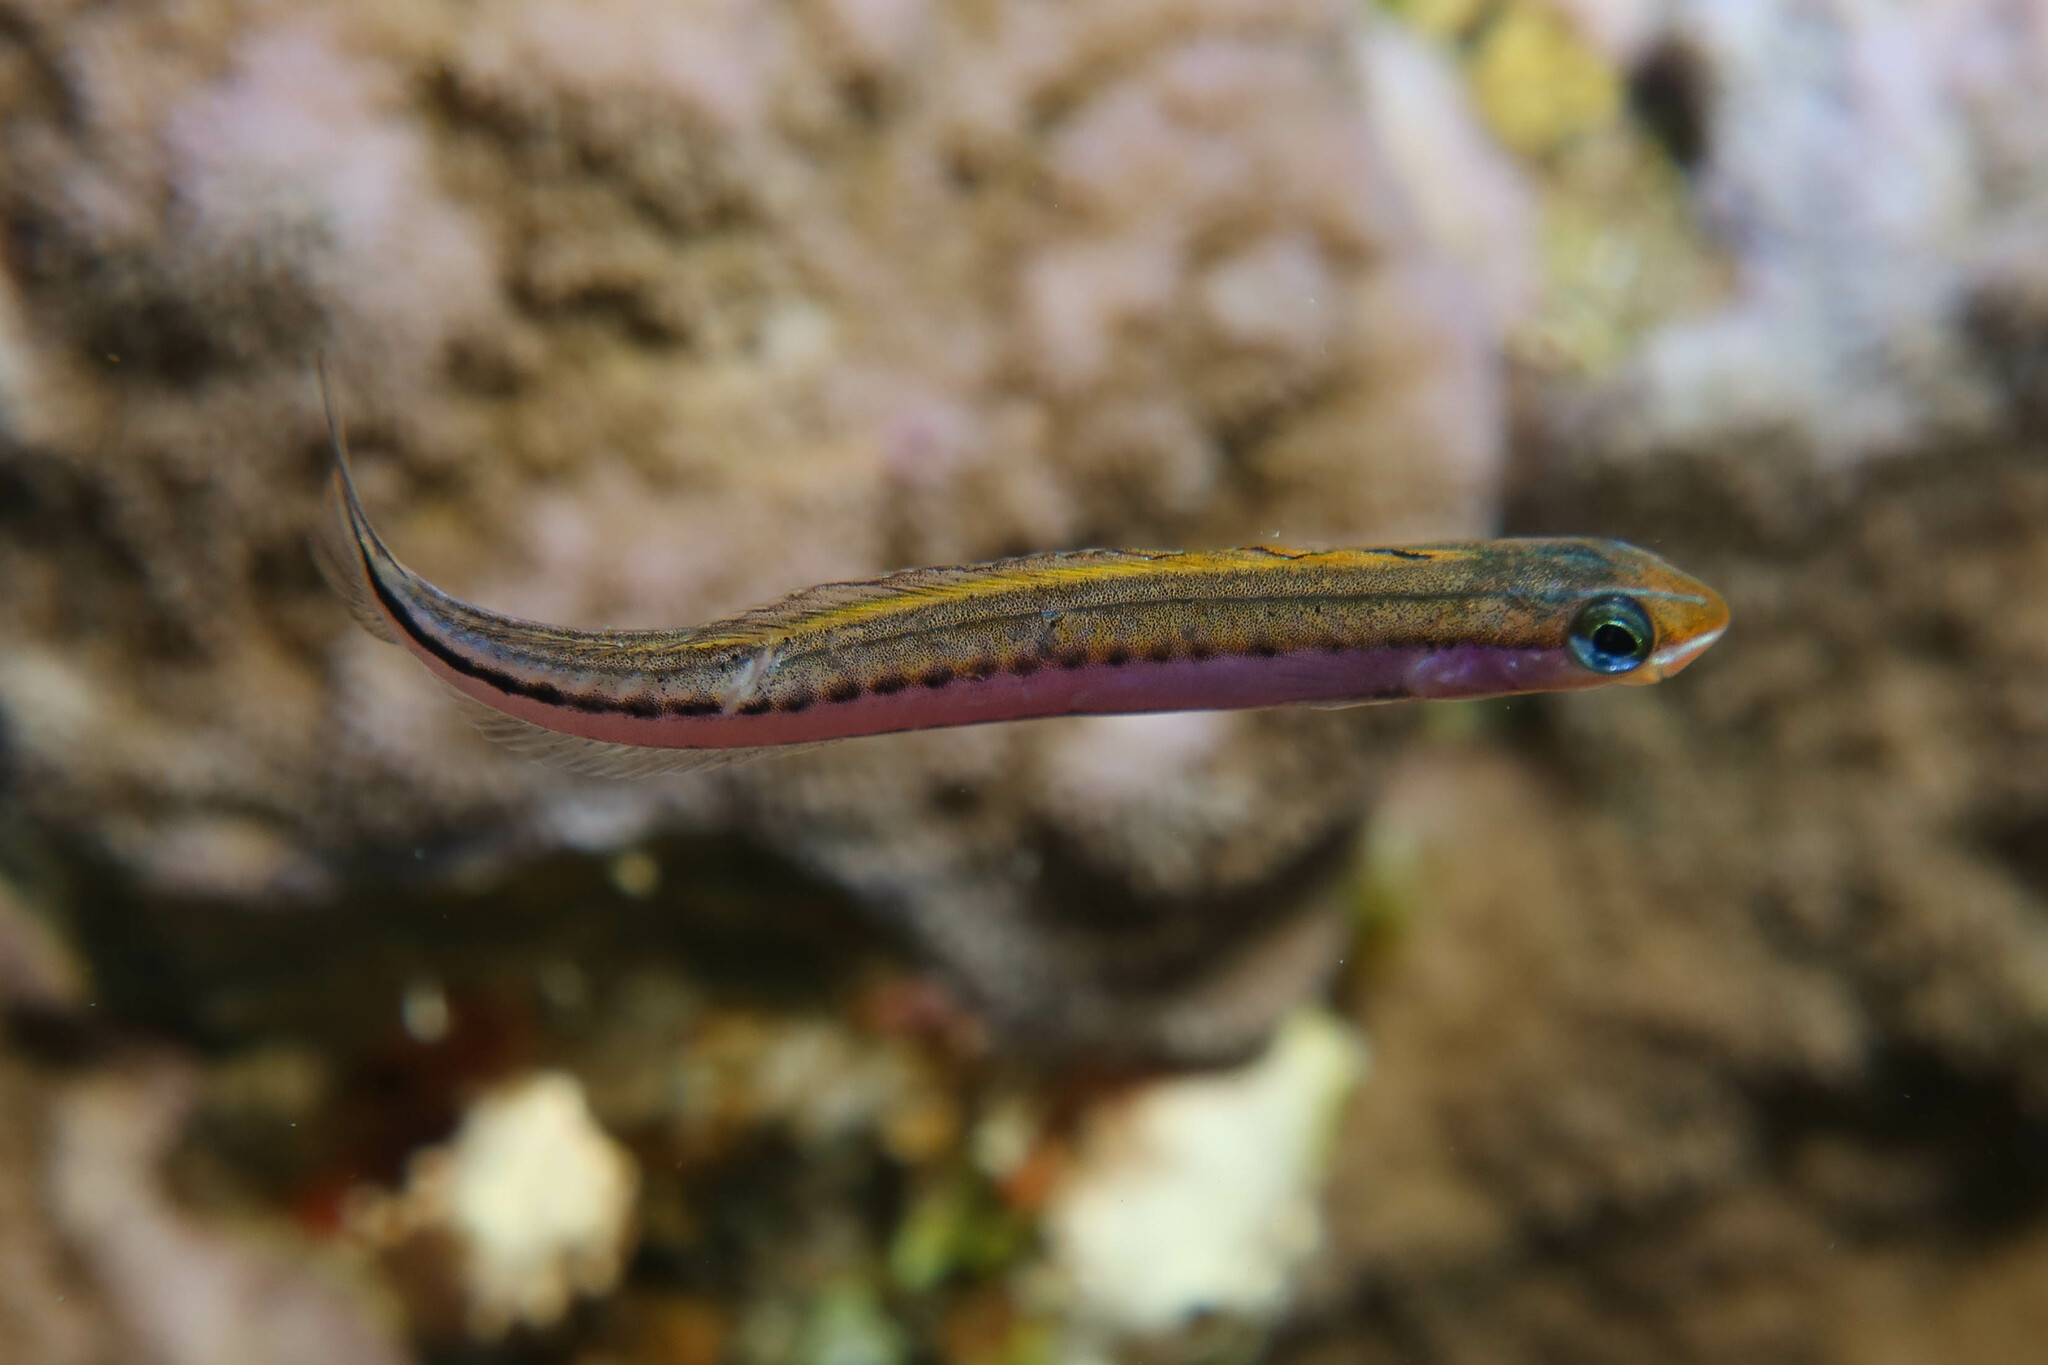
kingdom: Animalia
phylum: Chordata
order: Perciformes
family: Blenniidae
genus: Plagiotremus
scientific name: Plagiotremus tapeinosoma
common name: Hit and run blenny
